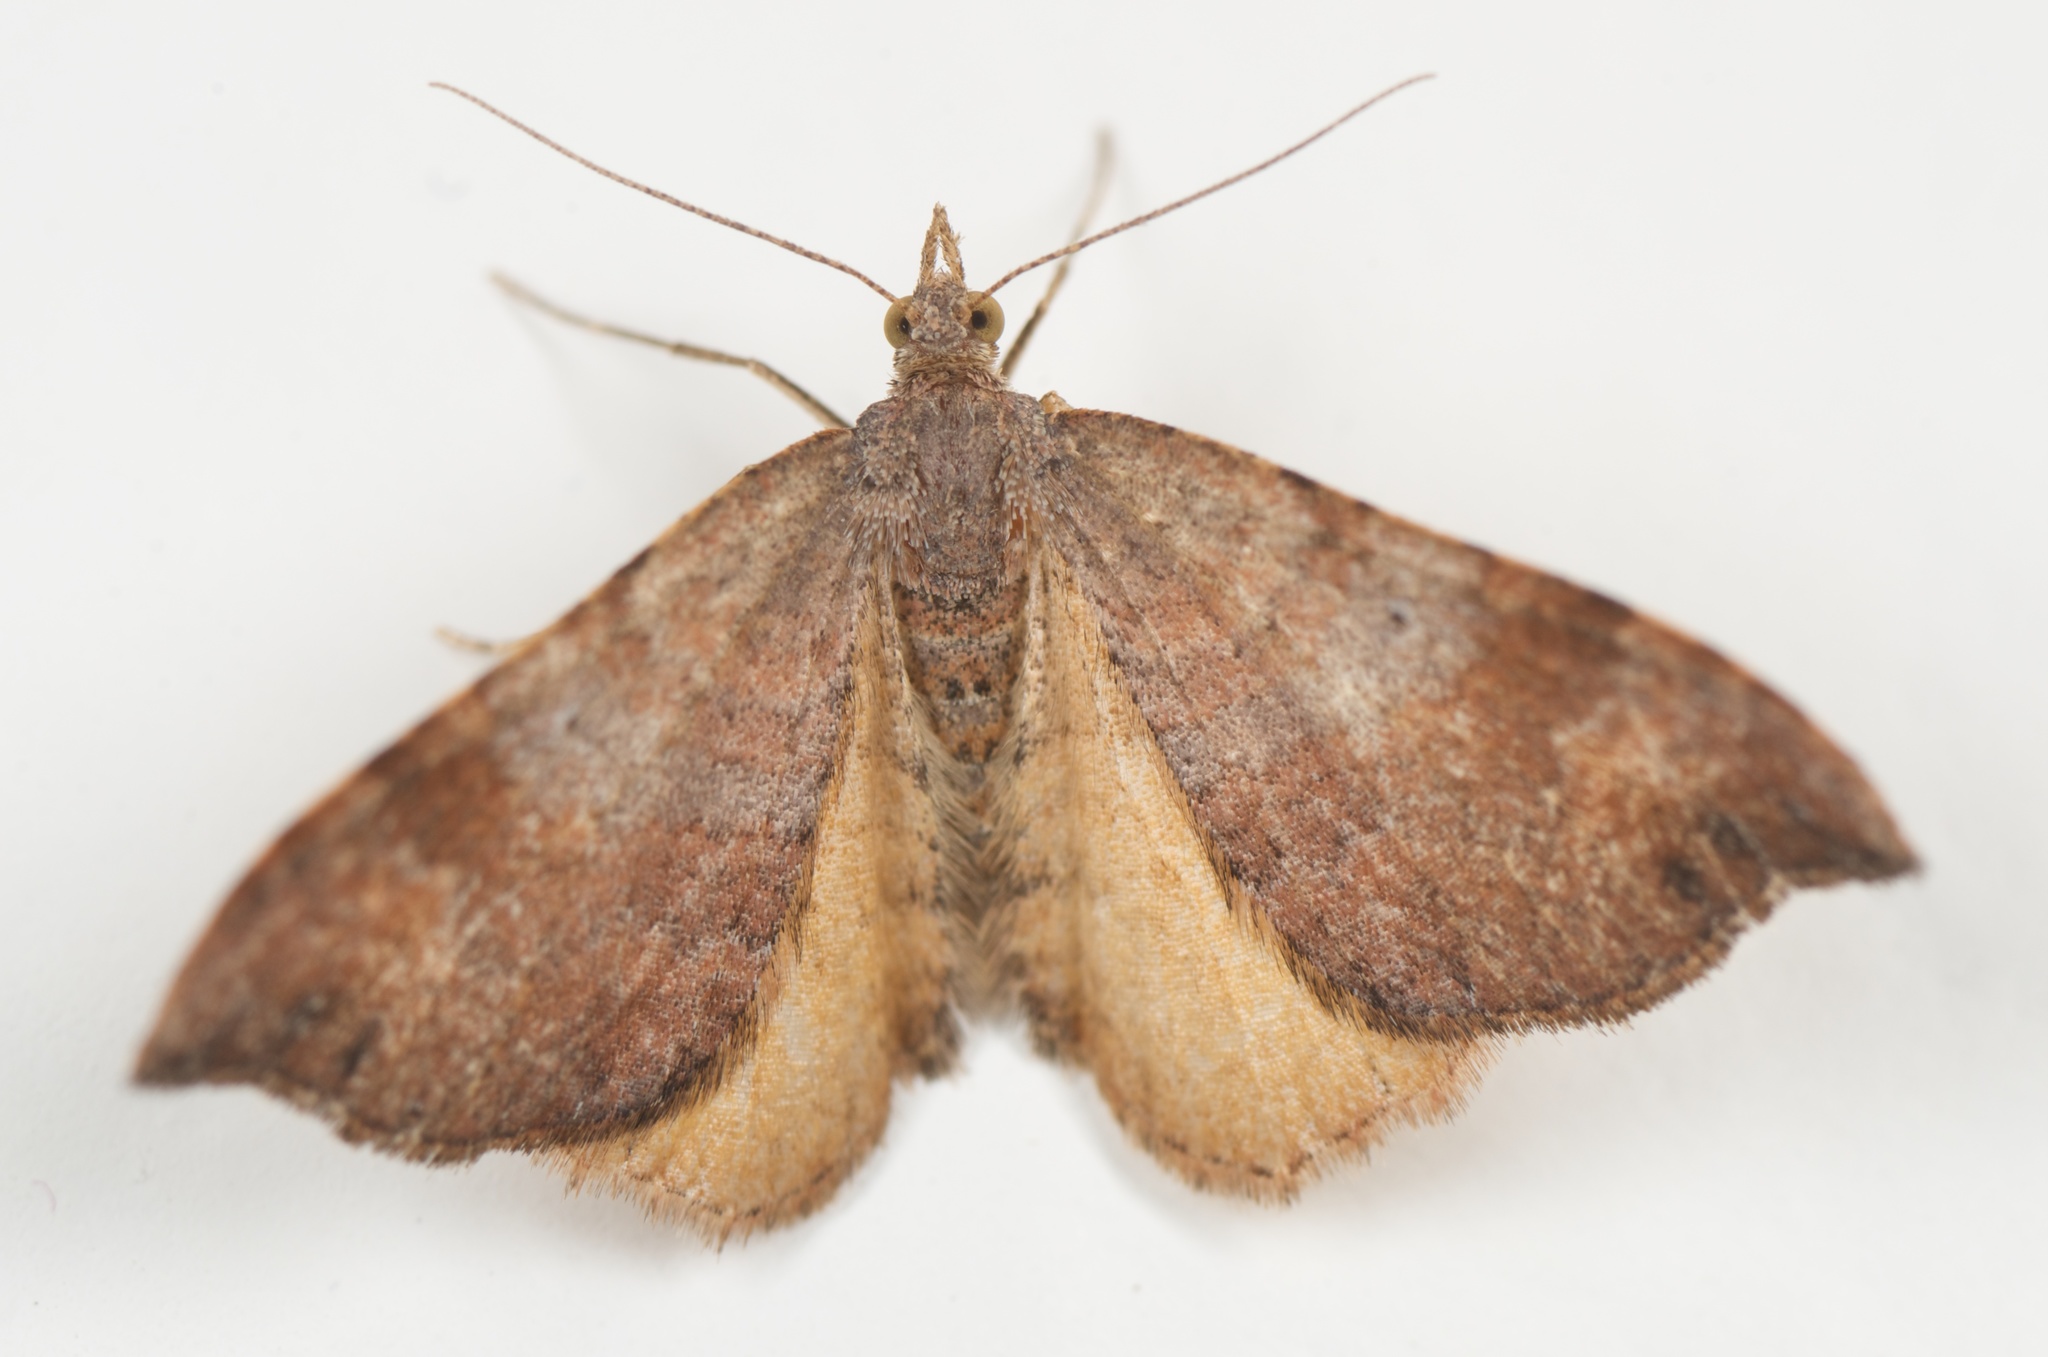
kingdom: Animalia
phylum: Arthropoda
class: Insecta
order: Lepidoptera
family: Geometridae
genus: Homodotis
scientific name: Homodotis megaspilata
